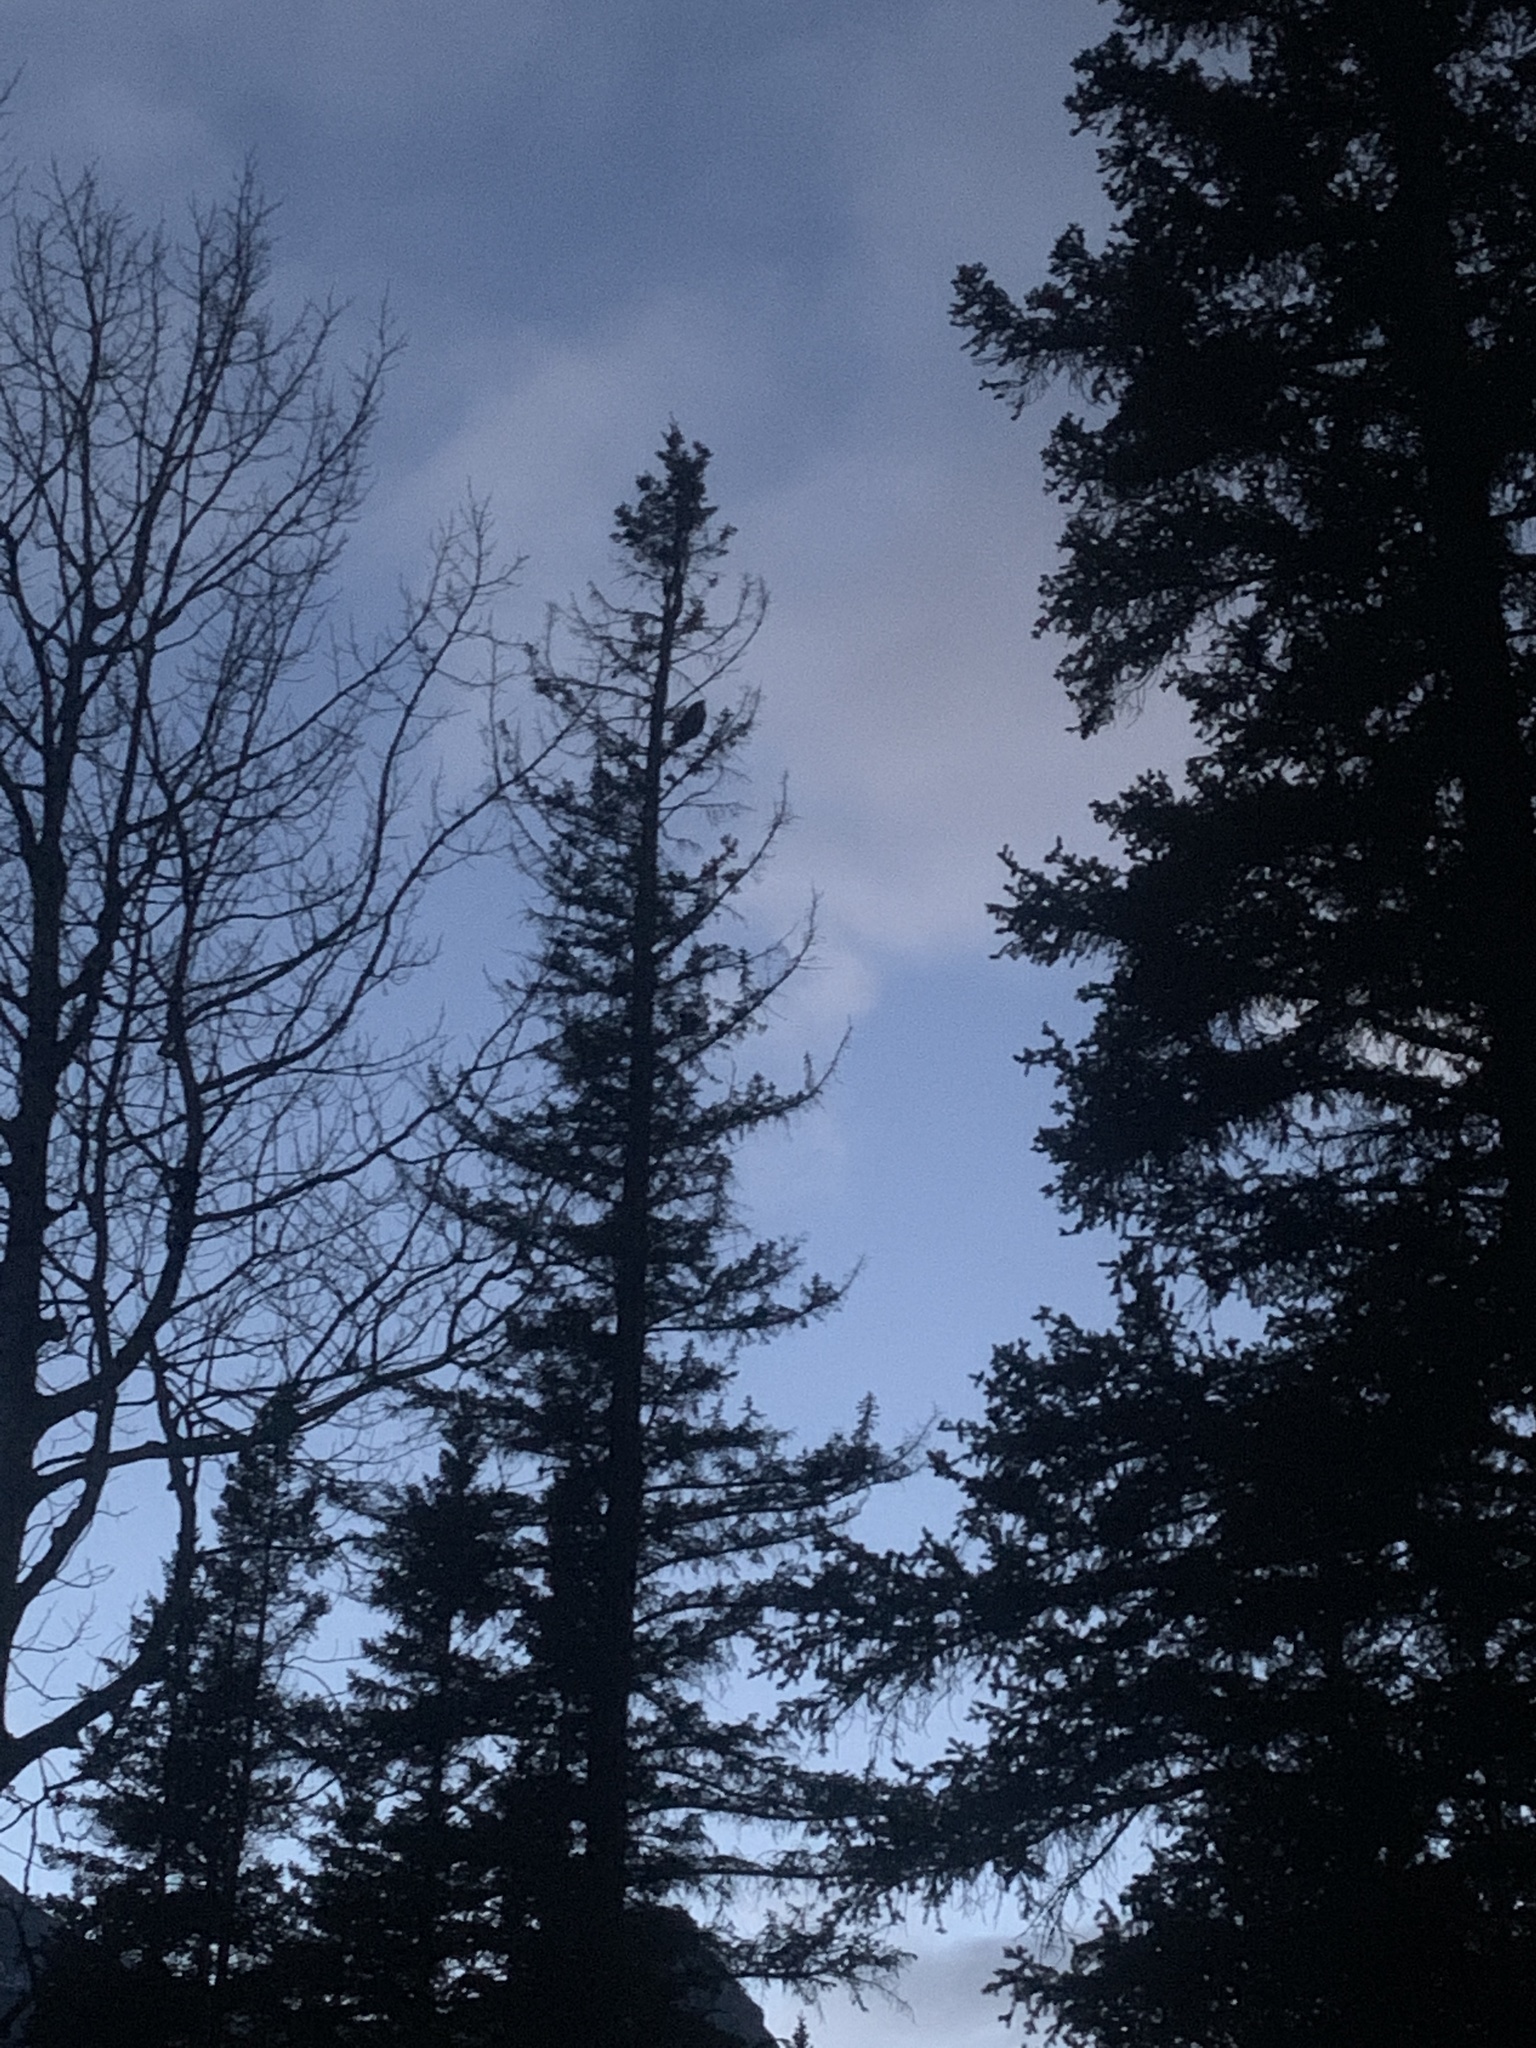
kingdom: Animalia
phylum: Chordata
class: Aves
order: Strigiformes
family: Strigidae
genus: Bubo
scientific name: Bubo virginianus
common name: Great horned owl
